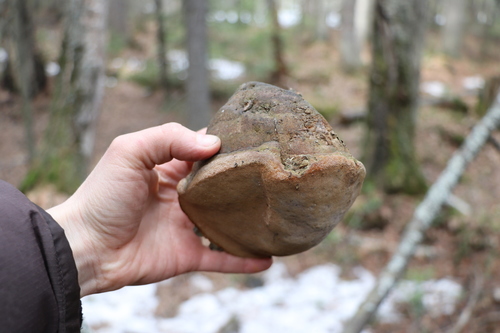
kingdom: Fungi
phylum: Basidiomycota
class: Agaricomycetes
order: Hymenochaetales
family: Hymenochaetaceae
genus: Phellinus
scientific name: Phellinus hartigii
